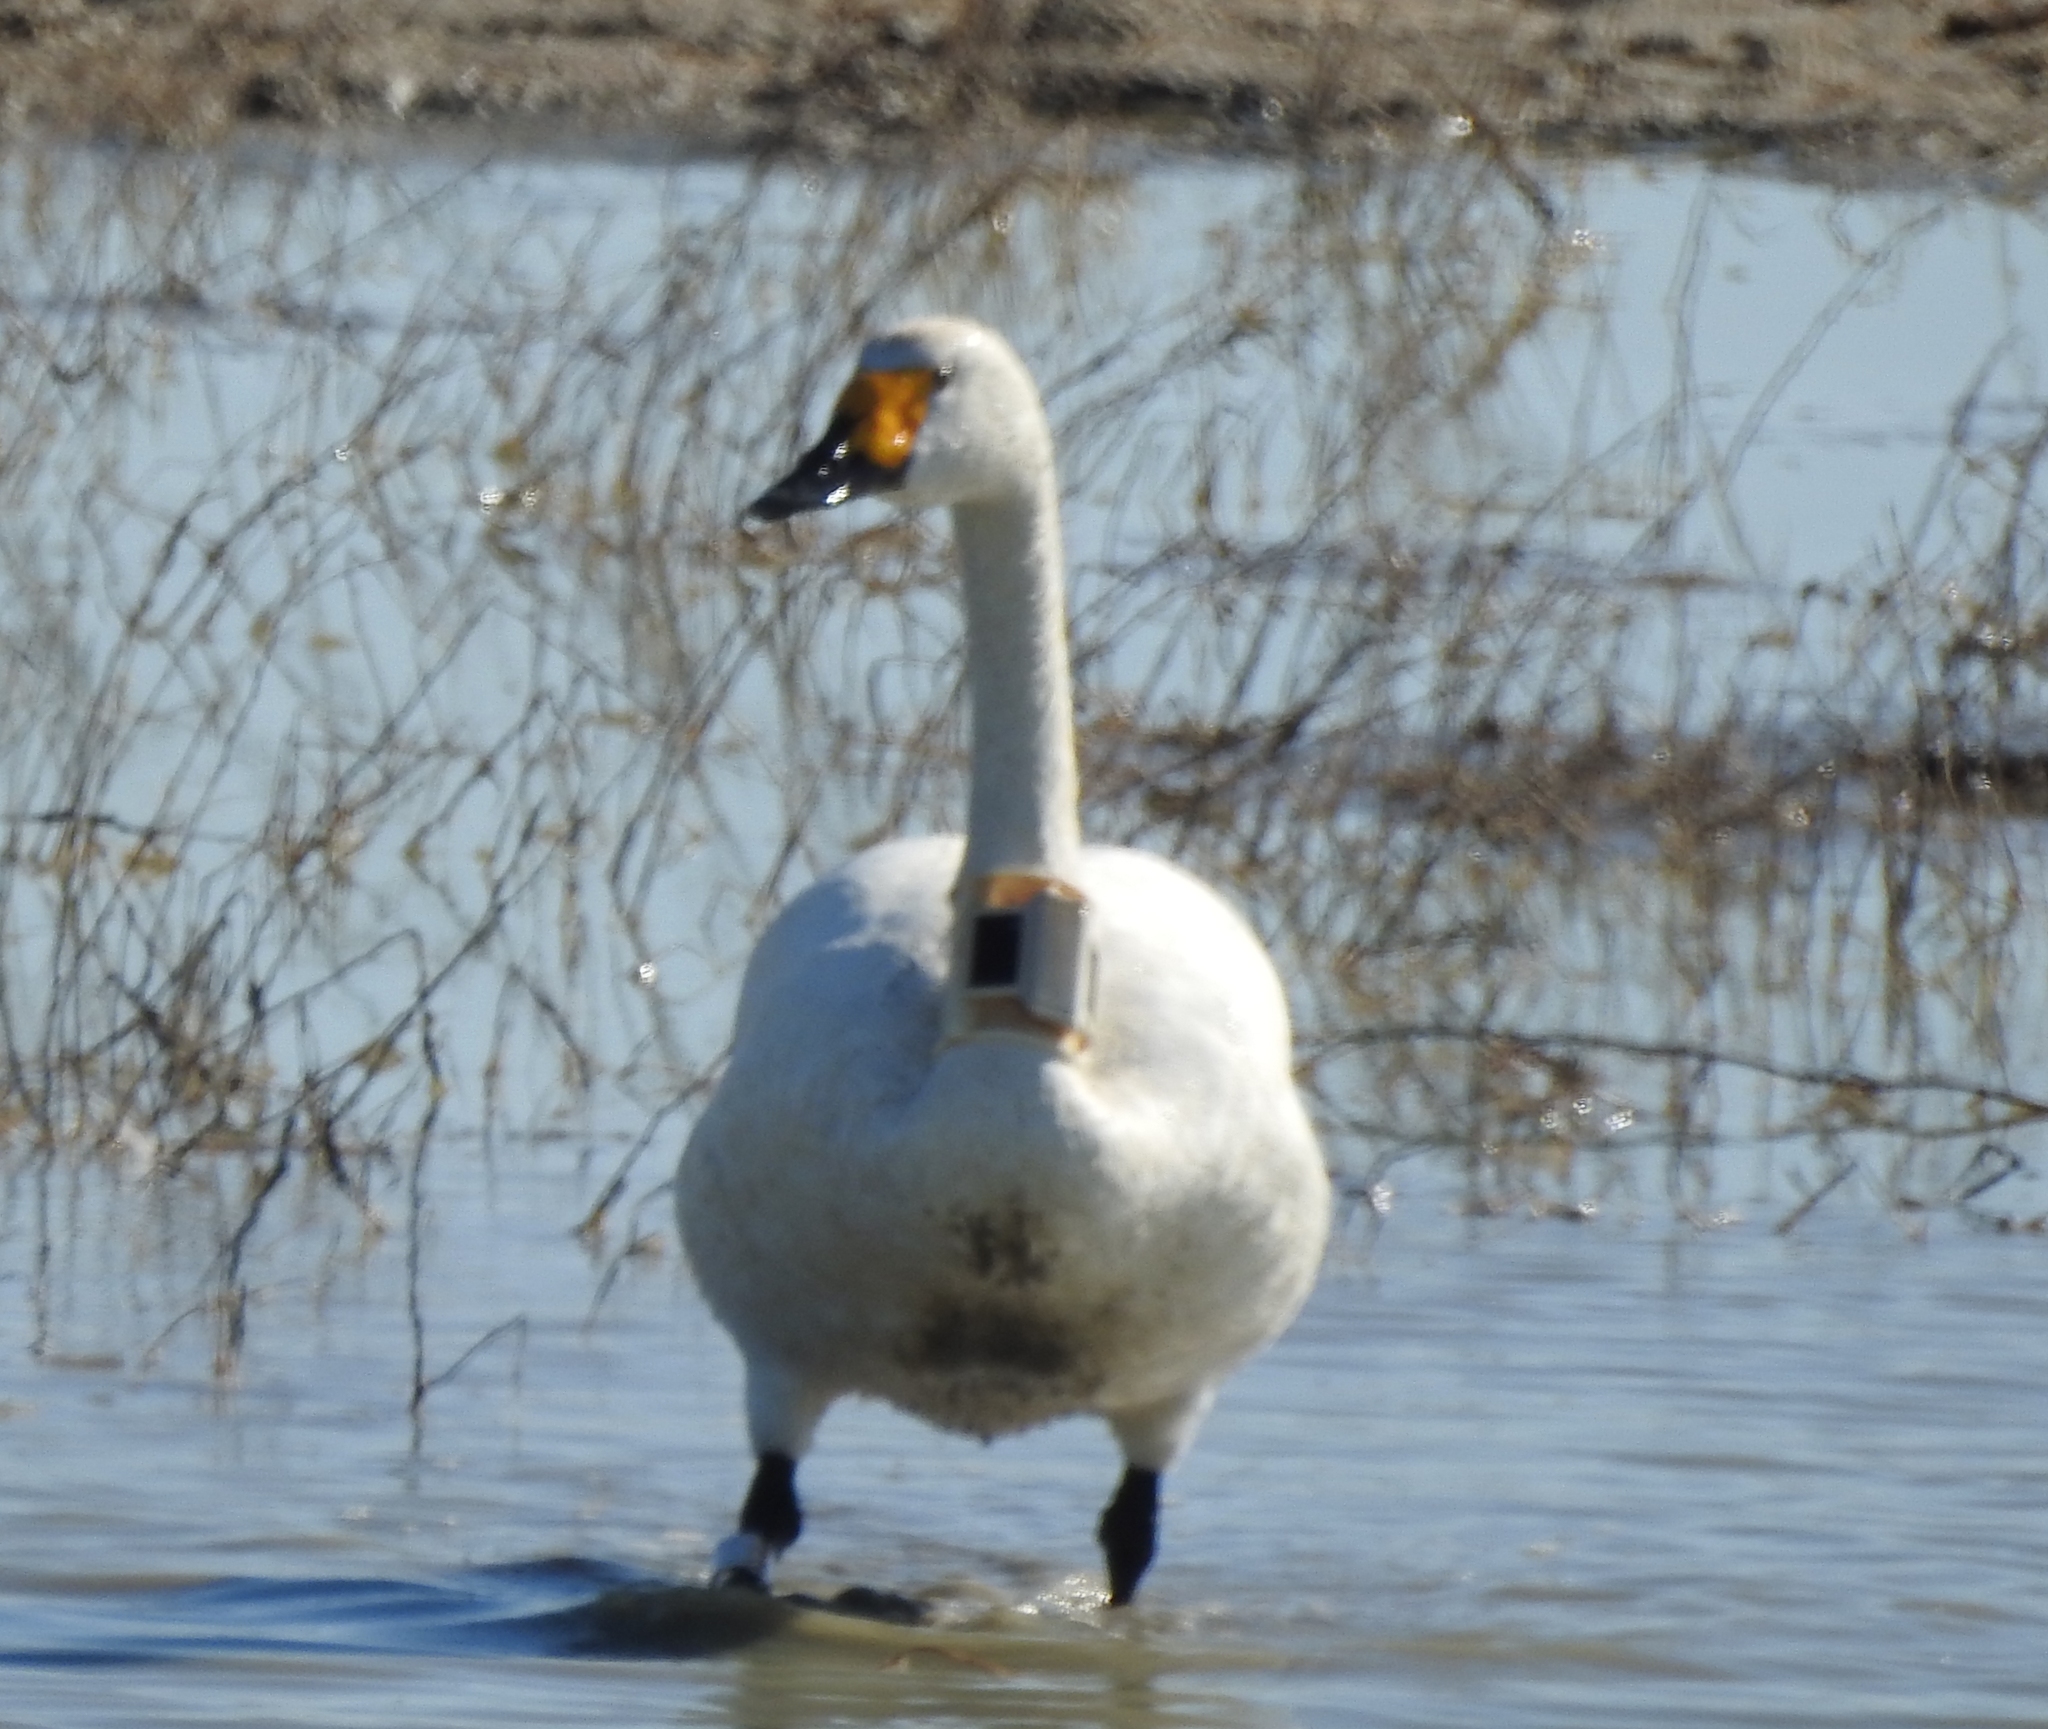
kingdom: Animalia
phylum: Chordata
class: Aves
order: Anseriformes
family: Anatidae
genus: Cygnus
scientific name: Cygnus cygnus
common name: Whooper swan
